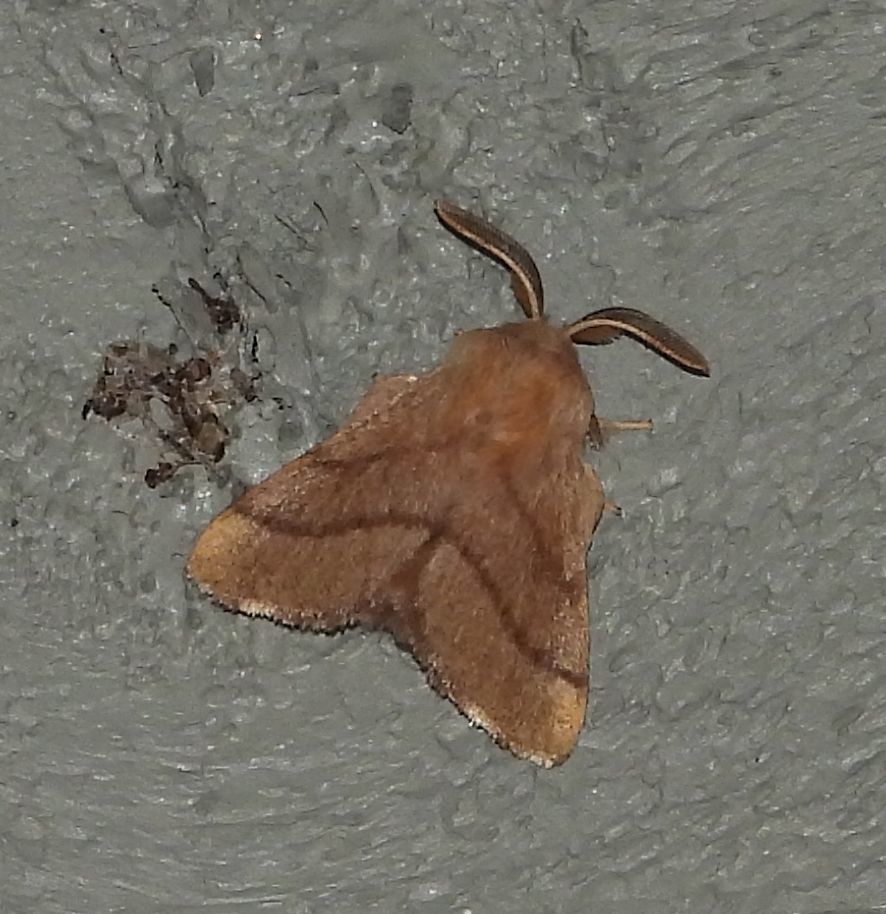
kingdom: Animalia
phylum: Arthropoda
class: Insecta
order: Lepidoptera
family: Lasiocampidae
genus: Malacosoma
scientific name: Malacosoma disstria
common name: Forest tent caterpillar
